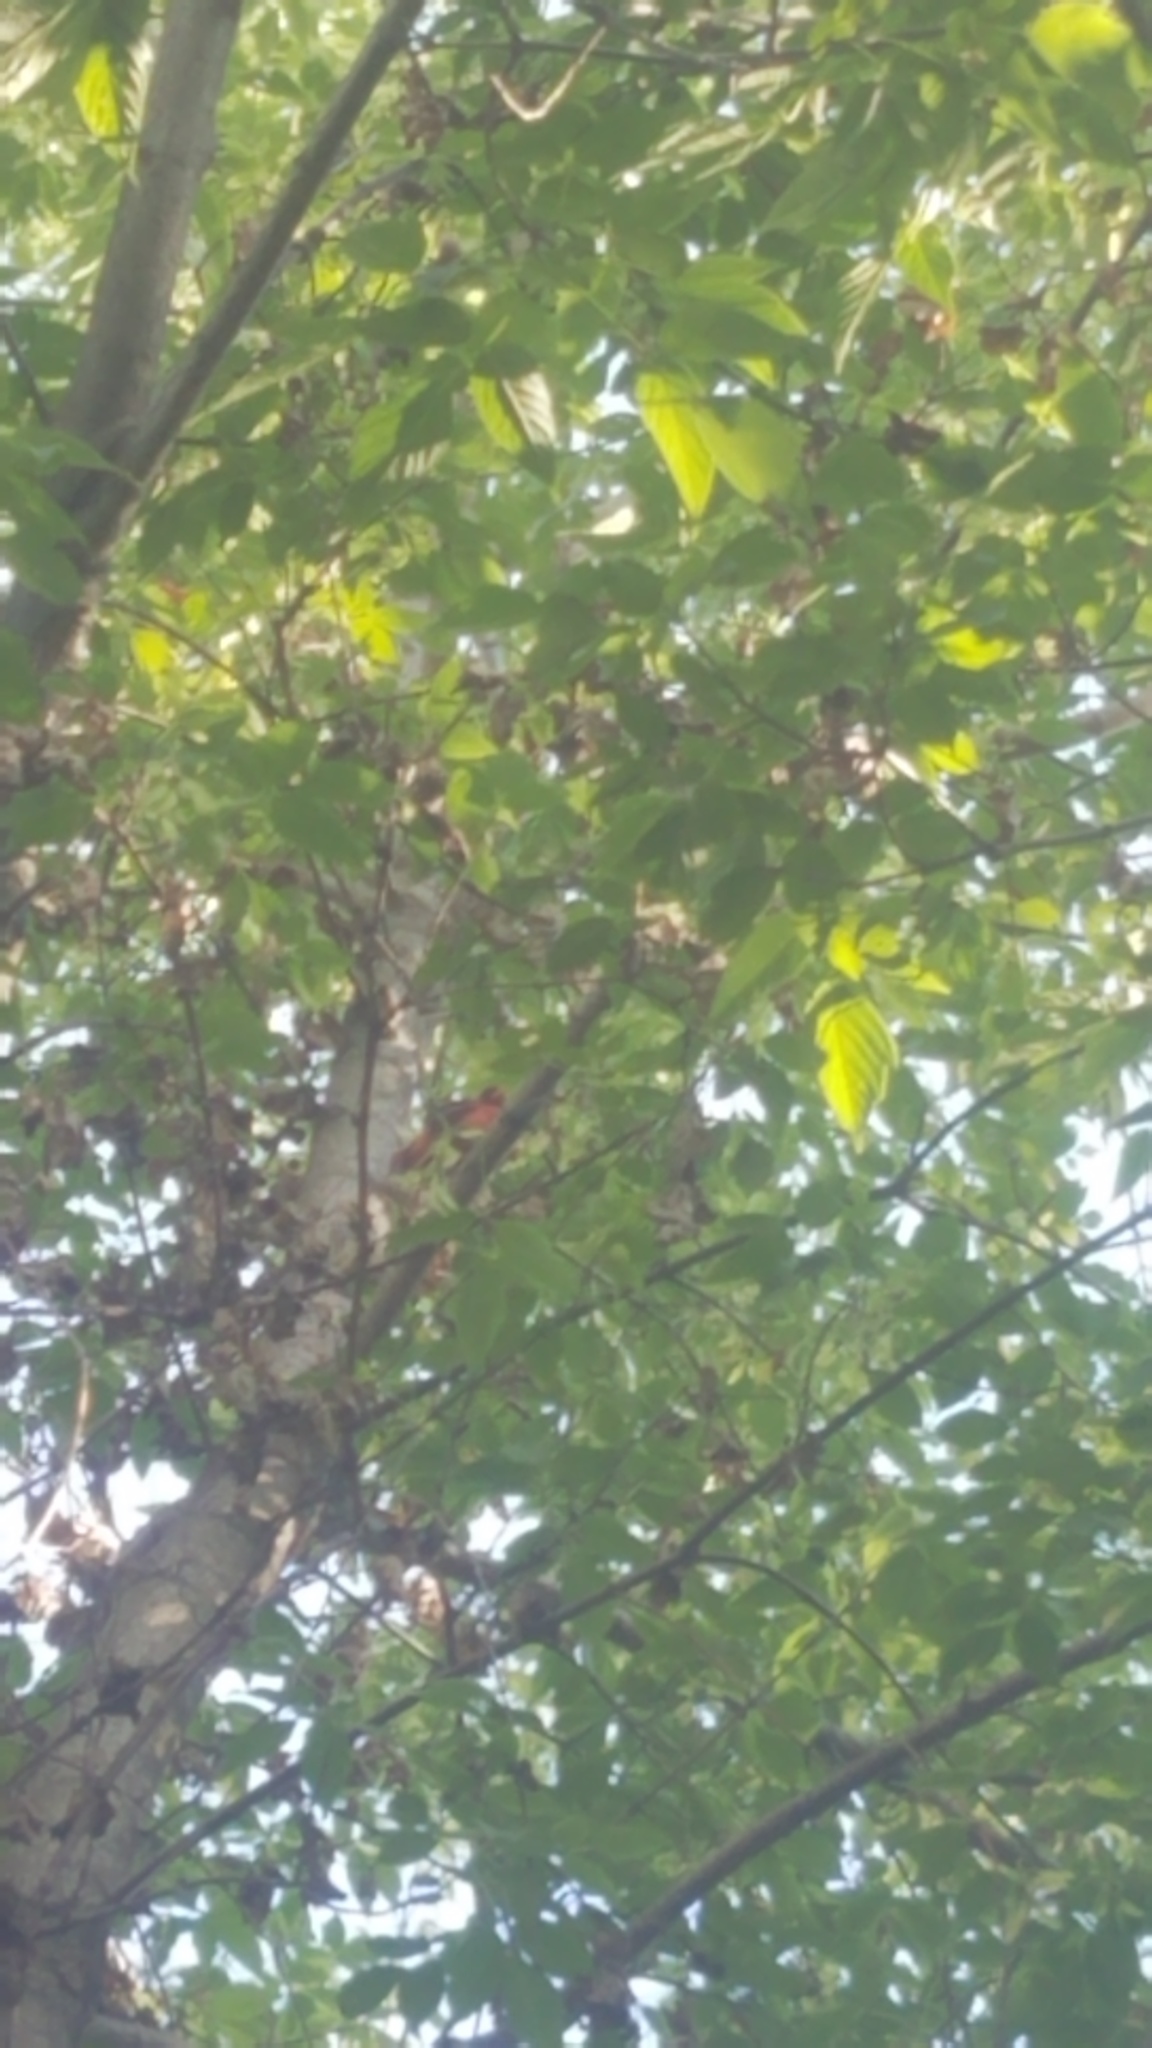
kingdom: Animalia
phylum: Chordata
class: Aves
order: Passeriformes
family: Cardinalidae
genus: Cardinalis
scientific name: Cardinalis cardinalis
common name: Northern cardinal
